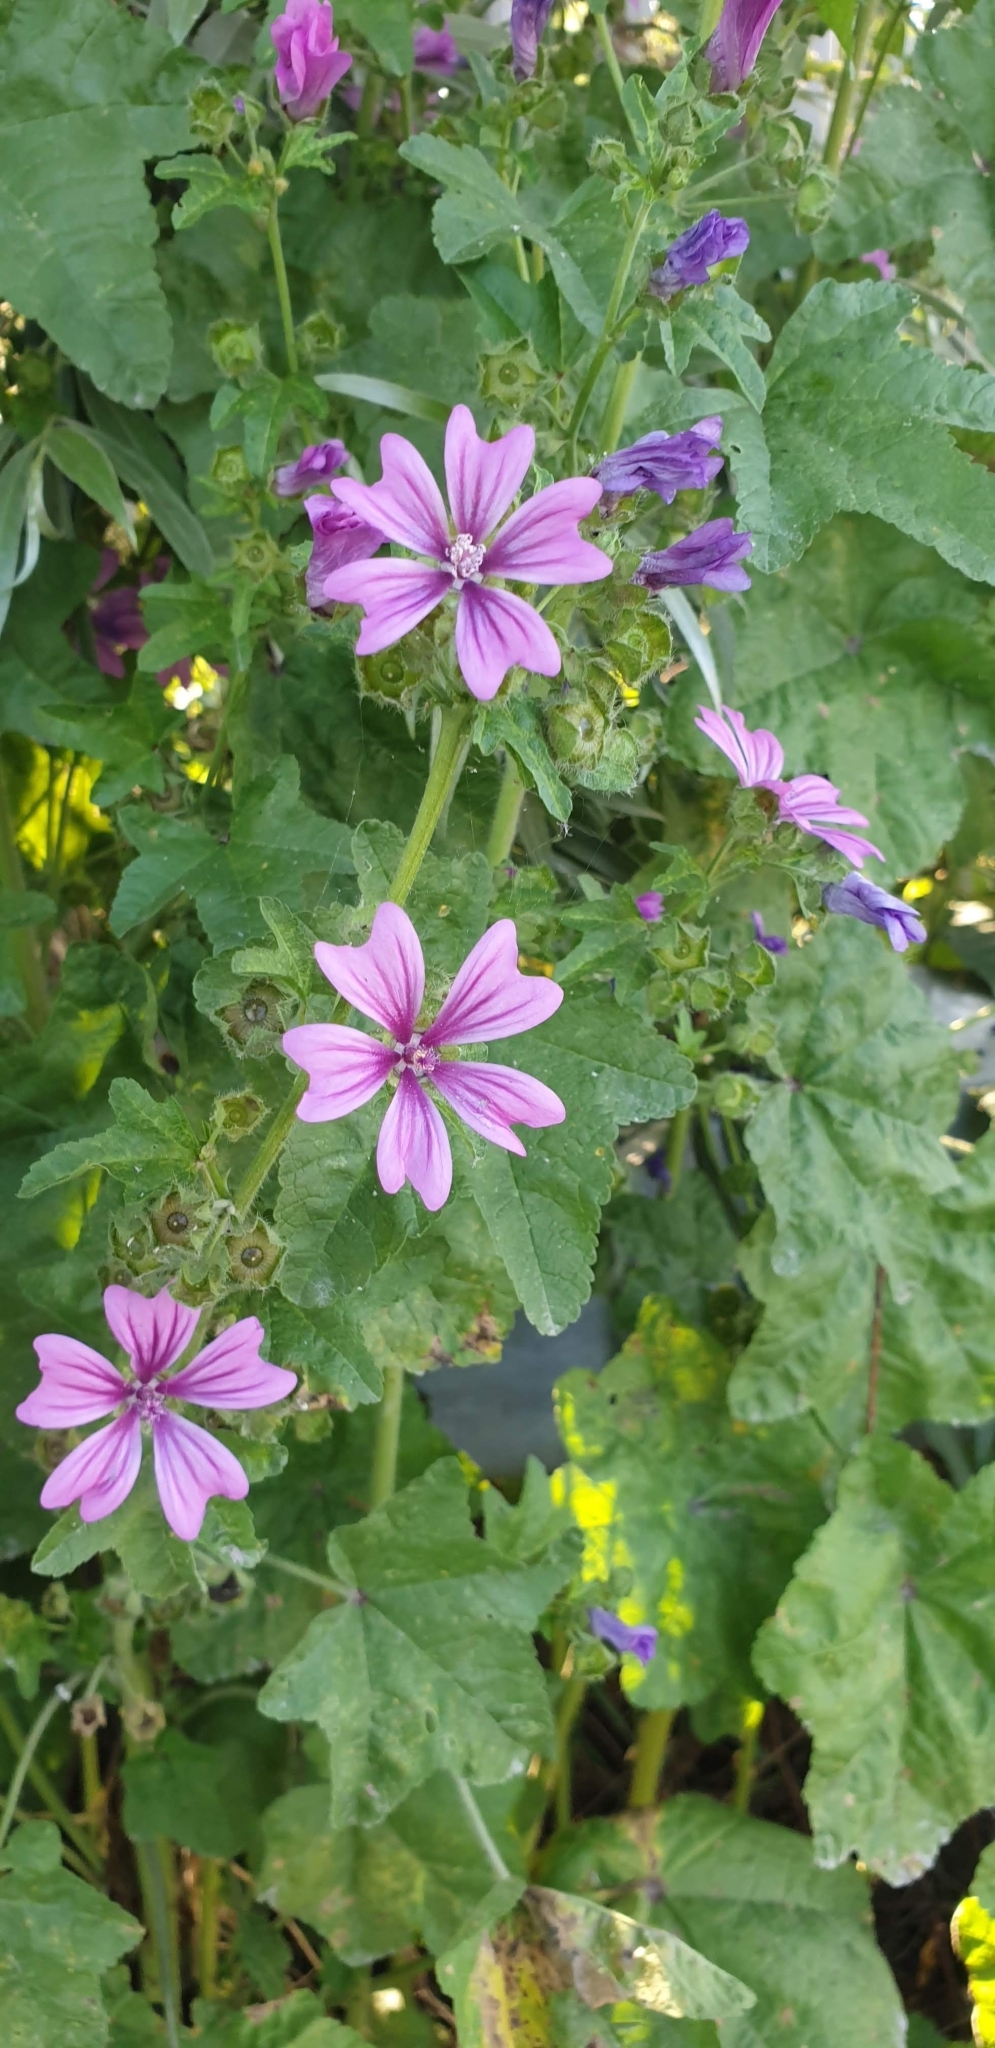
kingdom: Plantae
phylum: Tracheophyta
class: Magnoliopsida
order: Malvales
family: Malvaceae
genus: Malva
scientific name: Malva sylvestris
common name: Common mallow
